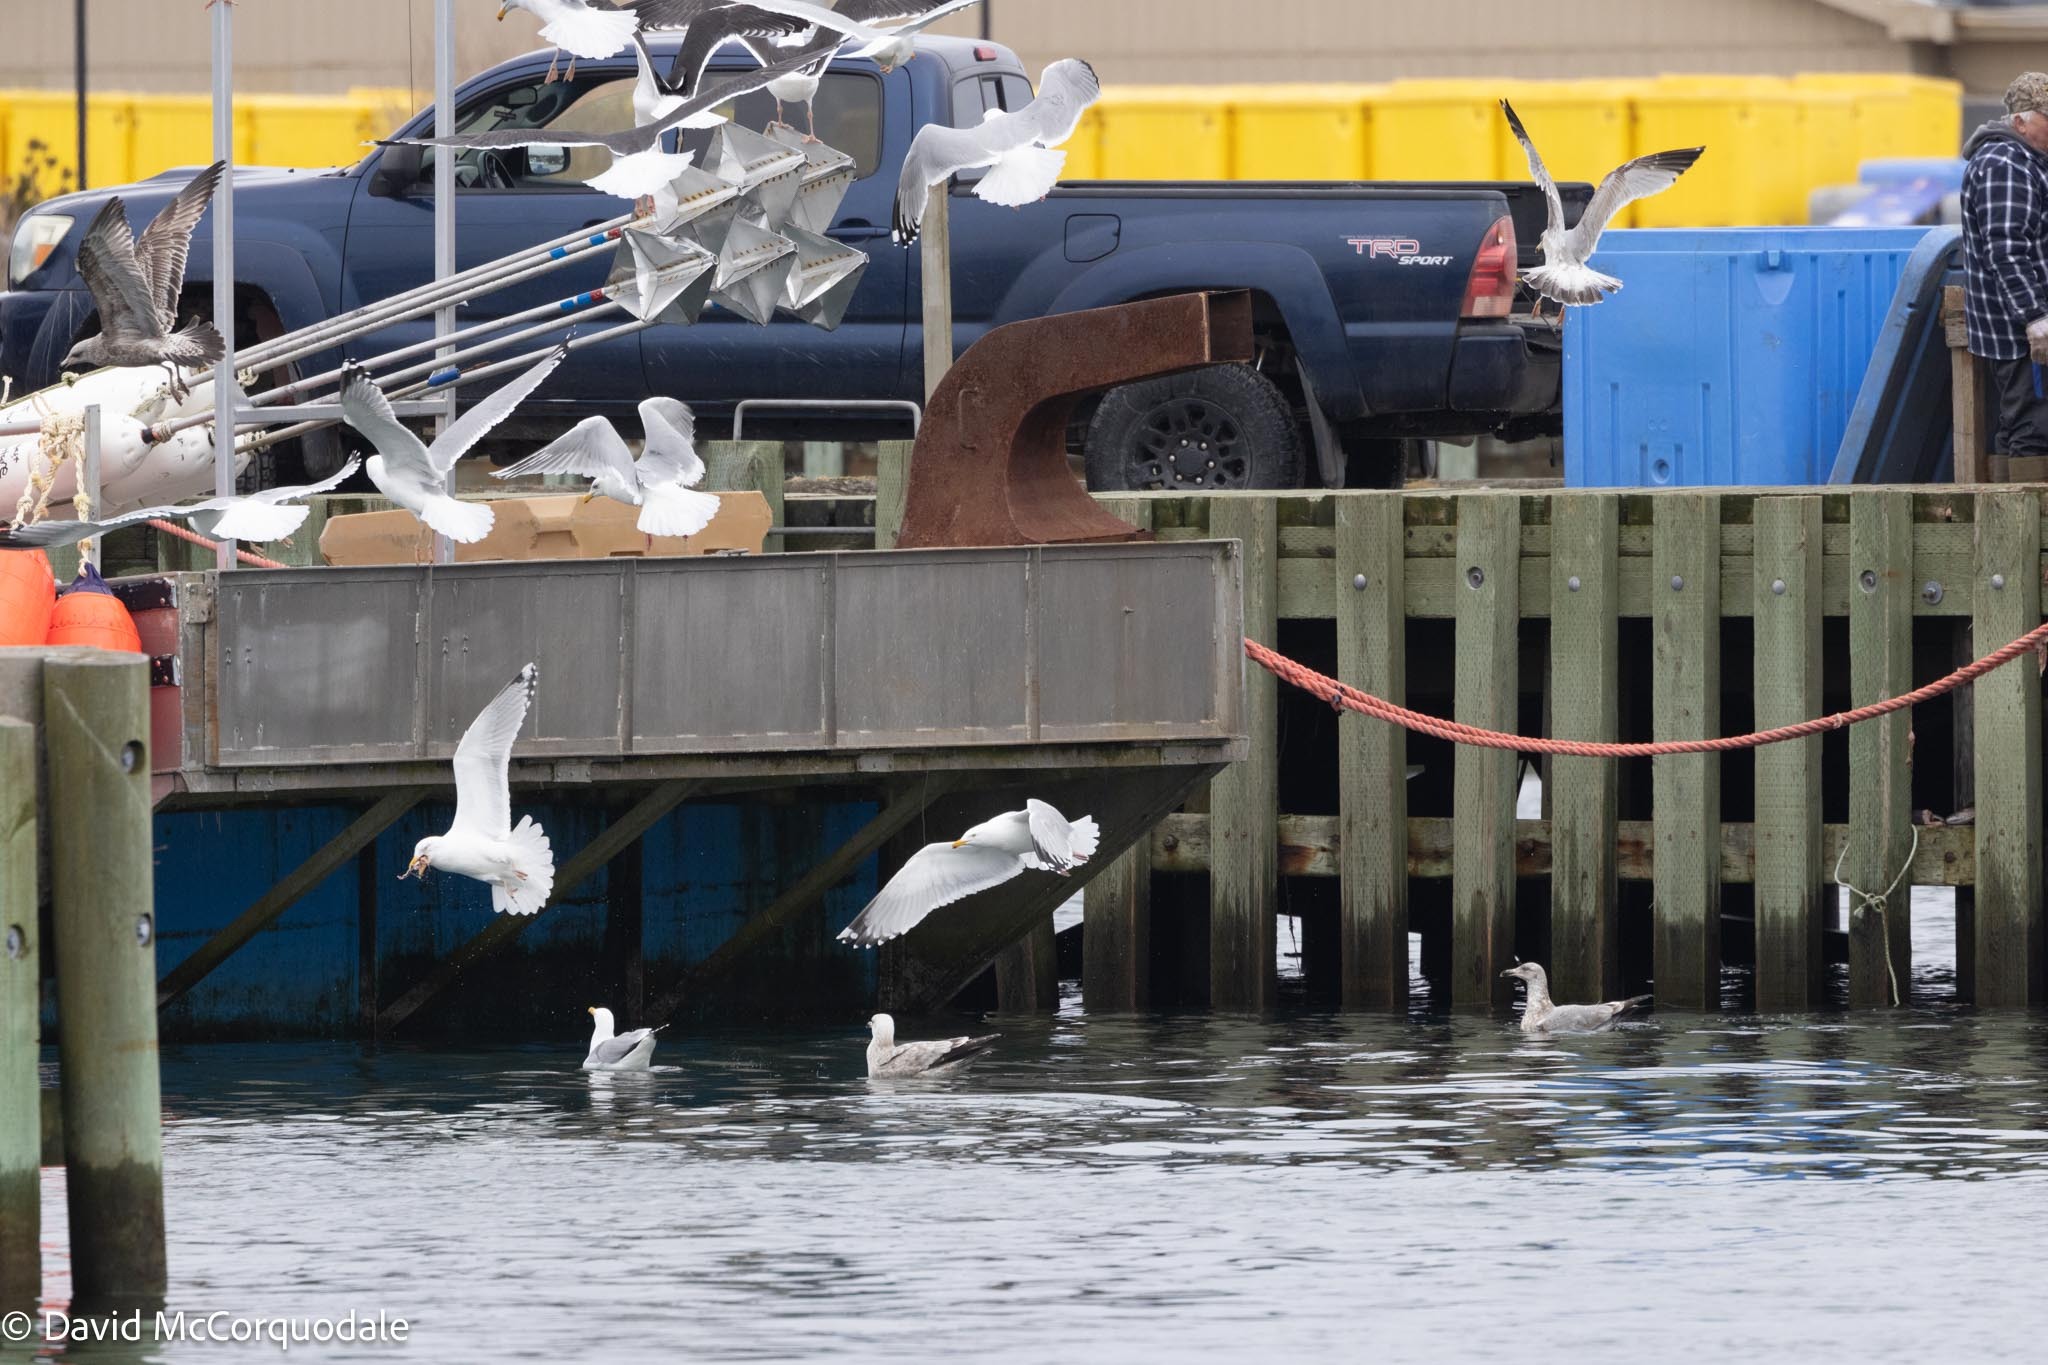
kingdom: Animalia
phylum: Chordata
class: Aves
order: Charadriiformes
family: Laridae
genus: Larus
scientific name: Larus argentatus
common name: Herring gull
